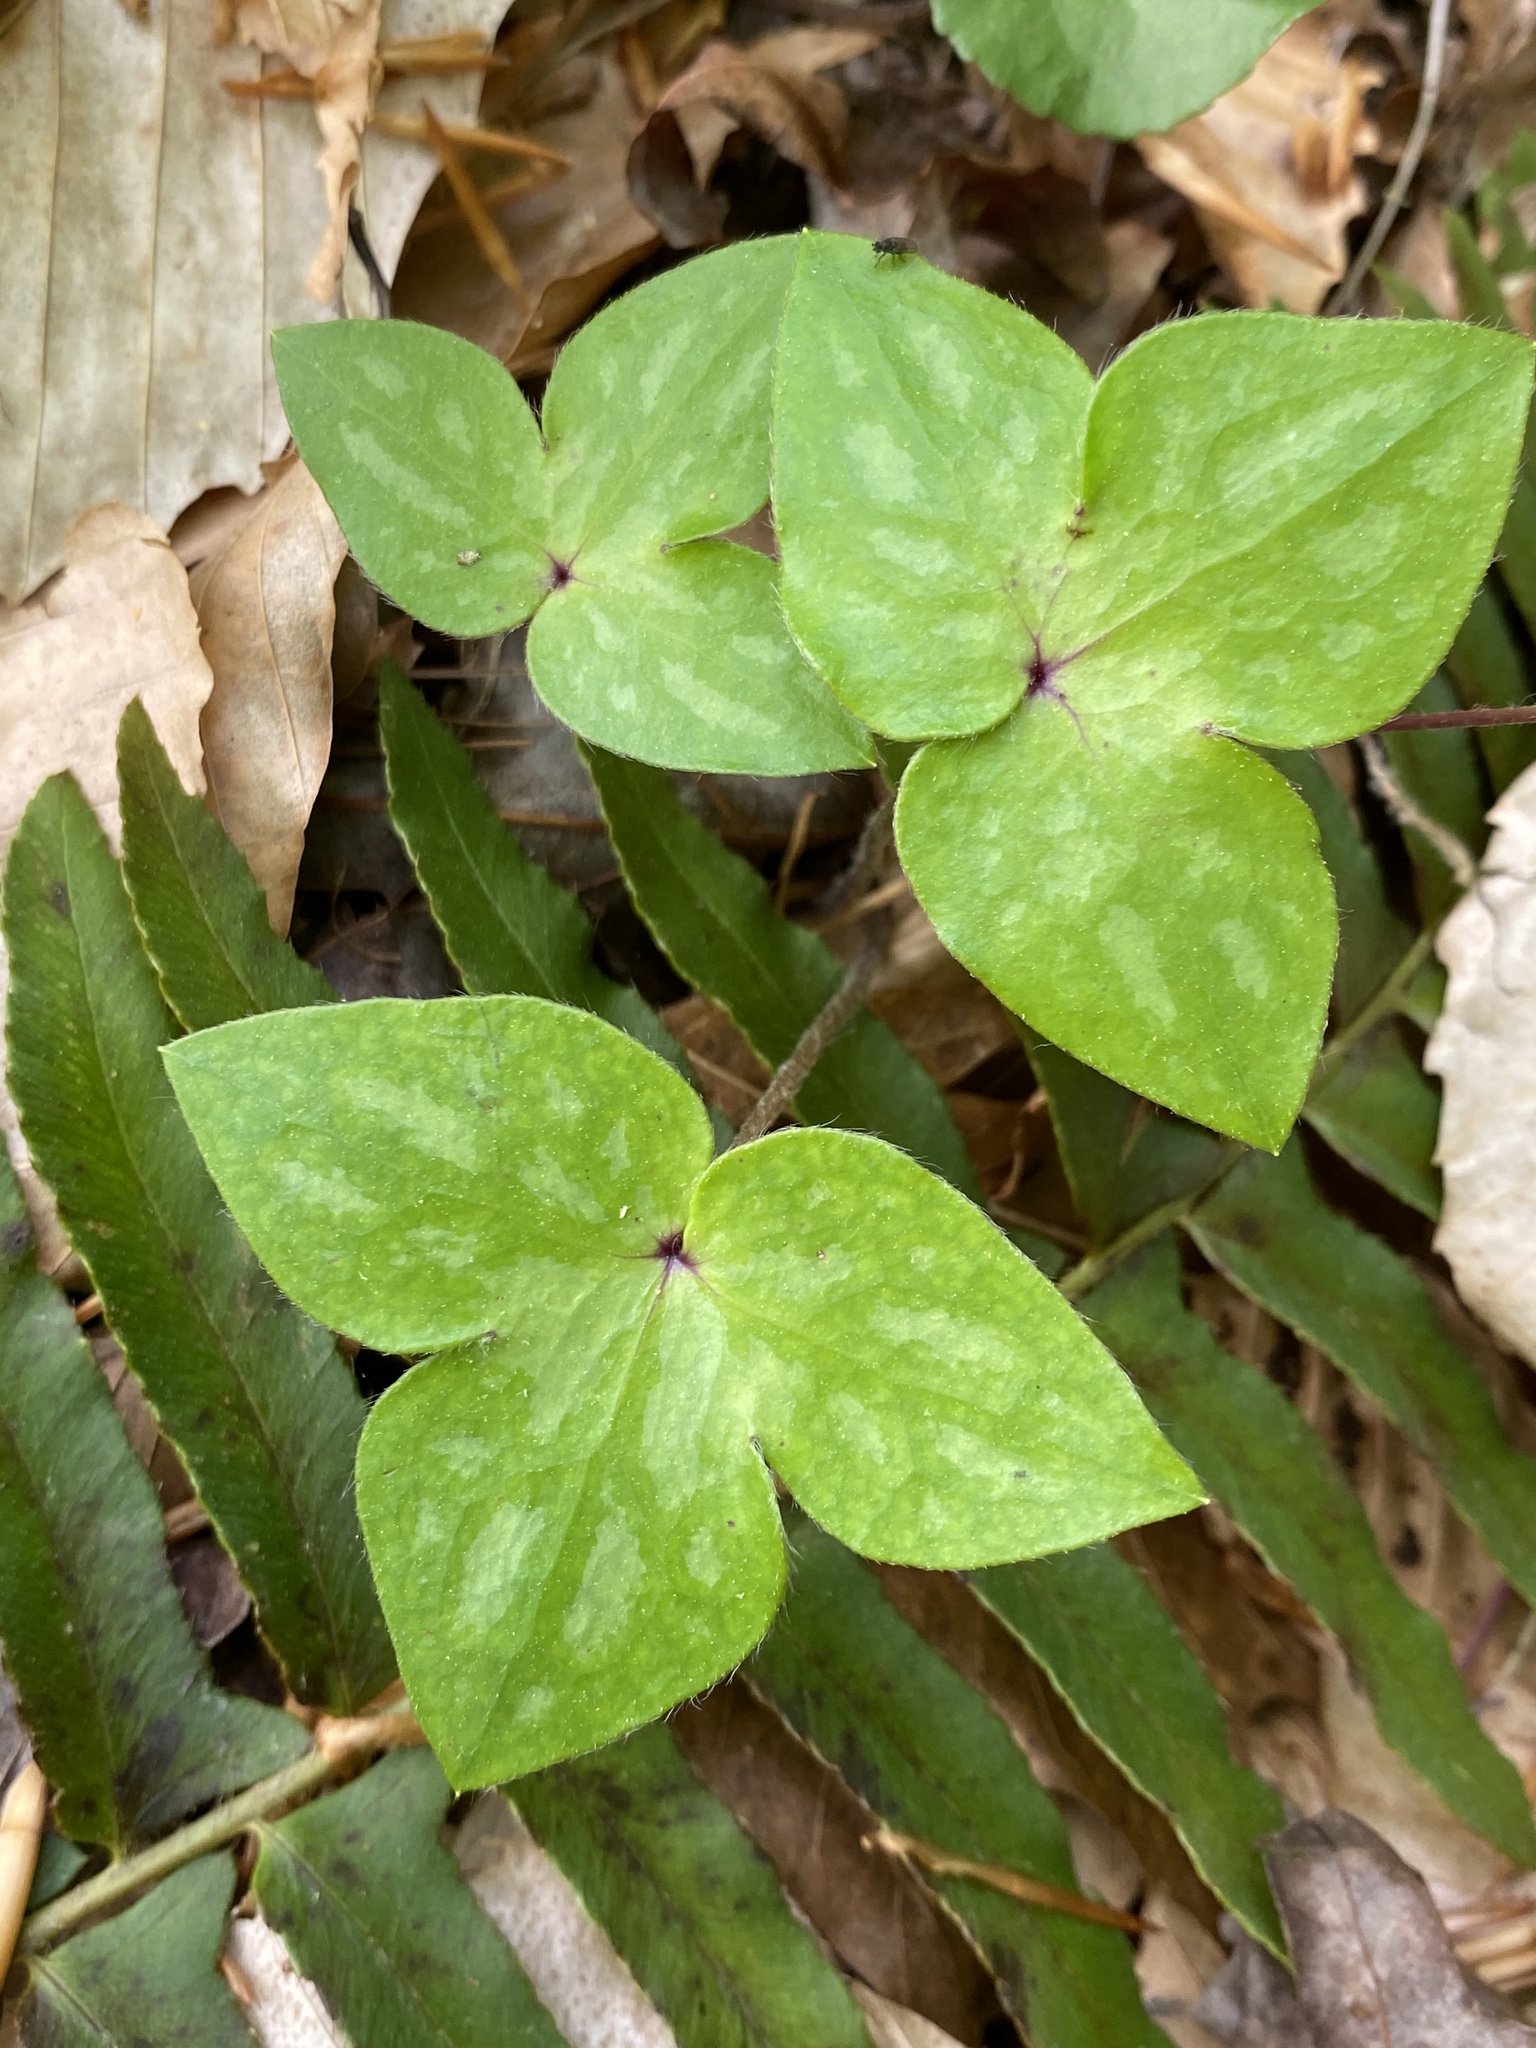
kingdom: Plantae
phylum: Tracheophyta
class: Magnoliopsida
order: Ranunculales
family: Ranunculaceae
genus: Hepatica
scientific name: Hepatica acutiloba
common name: Sharp-lobed hepatica
